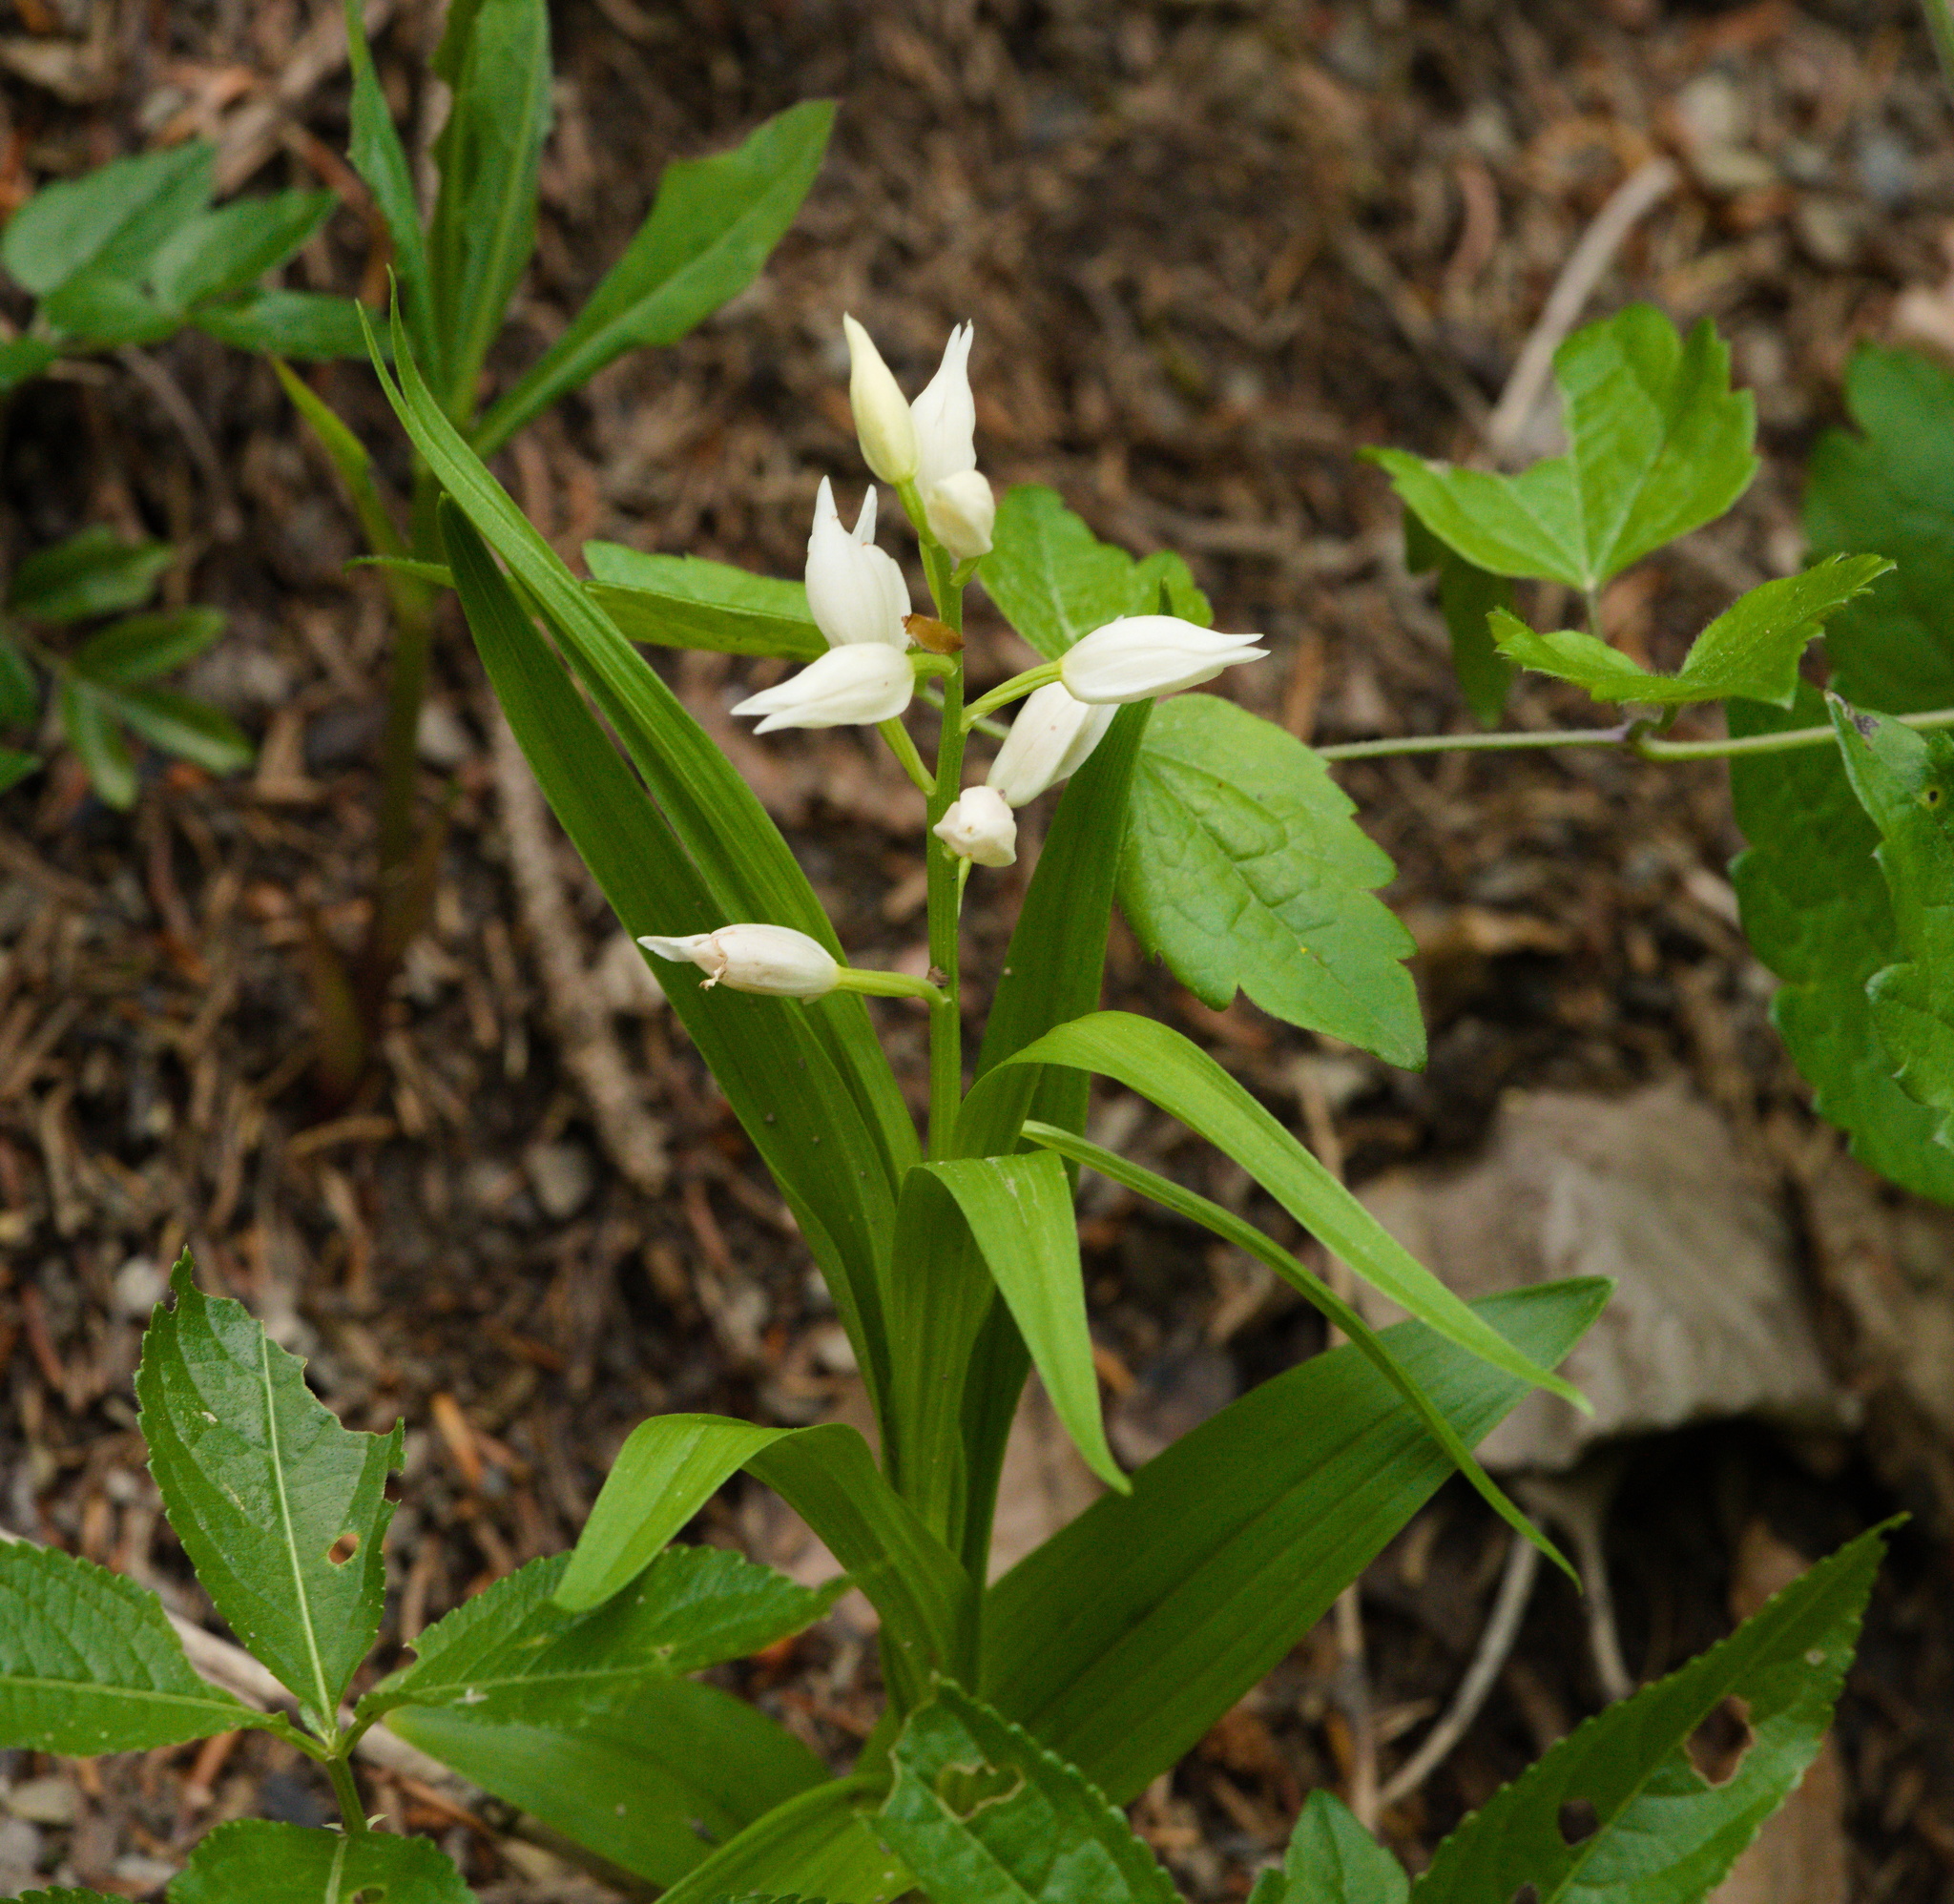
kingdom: Plantae
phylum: Tracheophyta
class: Liliopsida
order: Asparagales
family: Orchidaceae
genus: Cephalanthera
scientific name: Cephalanthera longifolia
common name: Narrow-leaved helleborine
